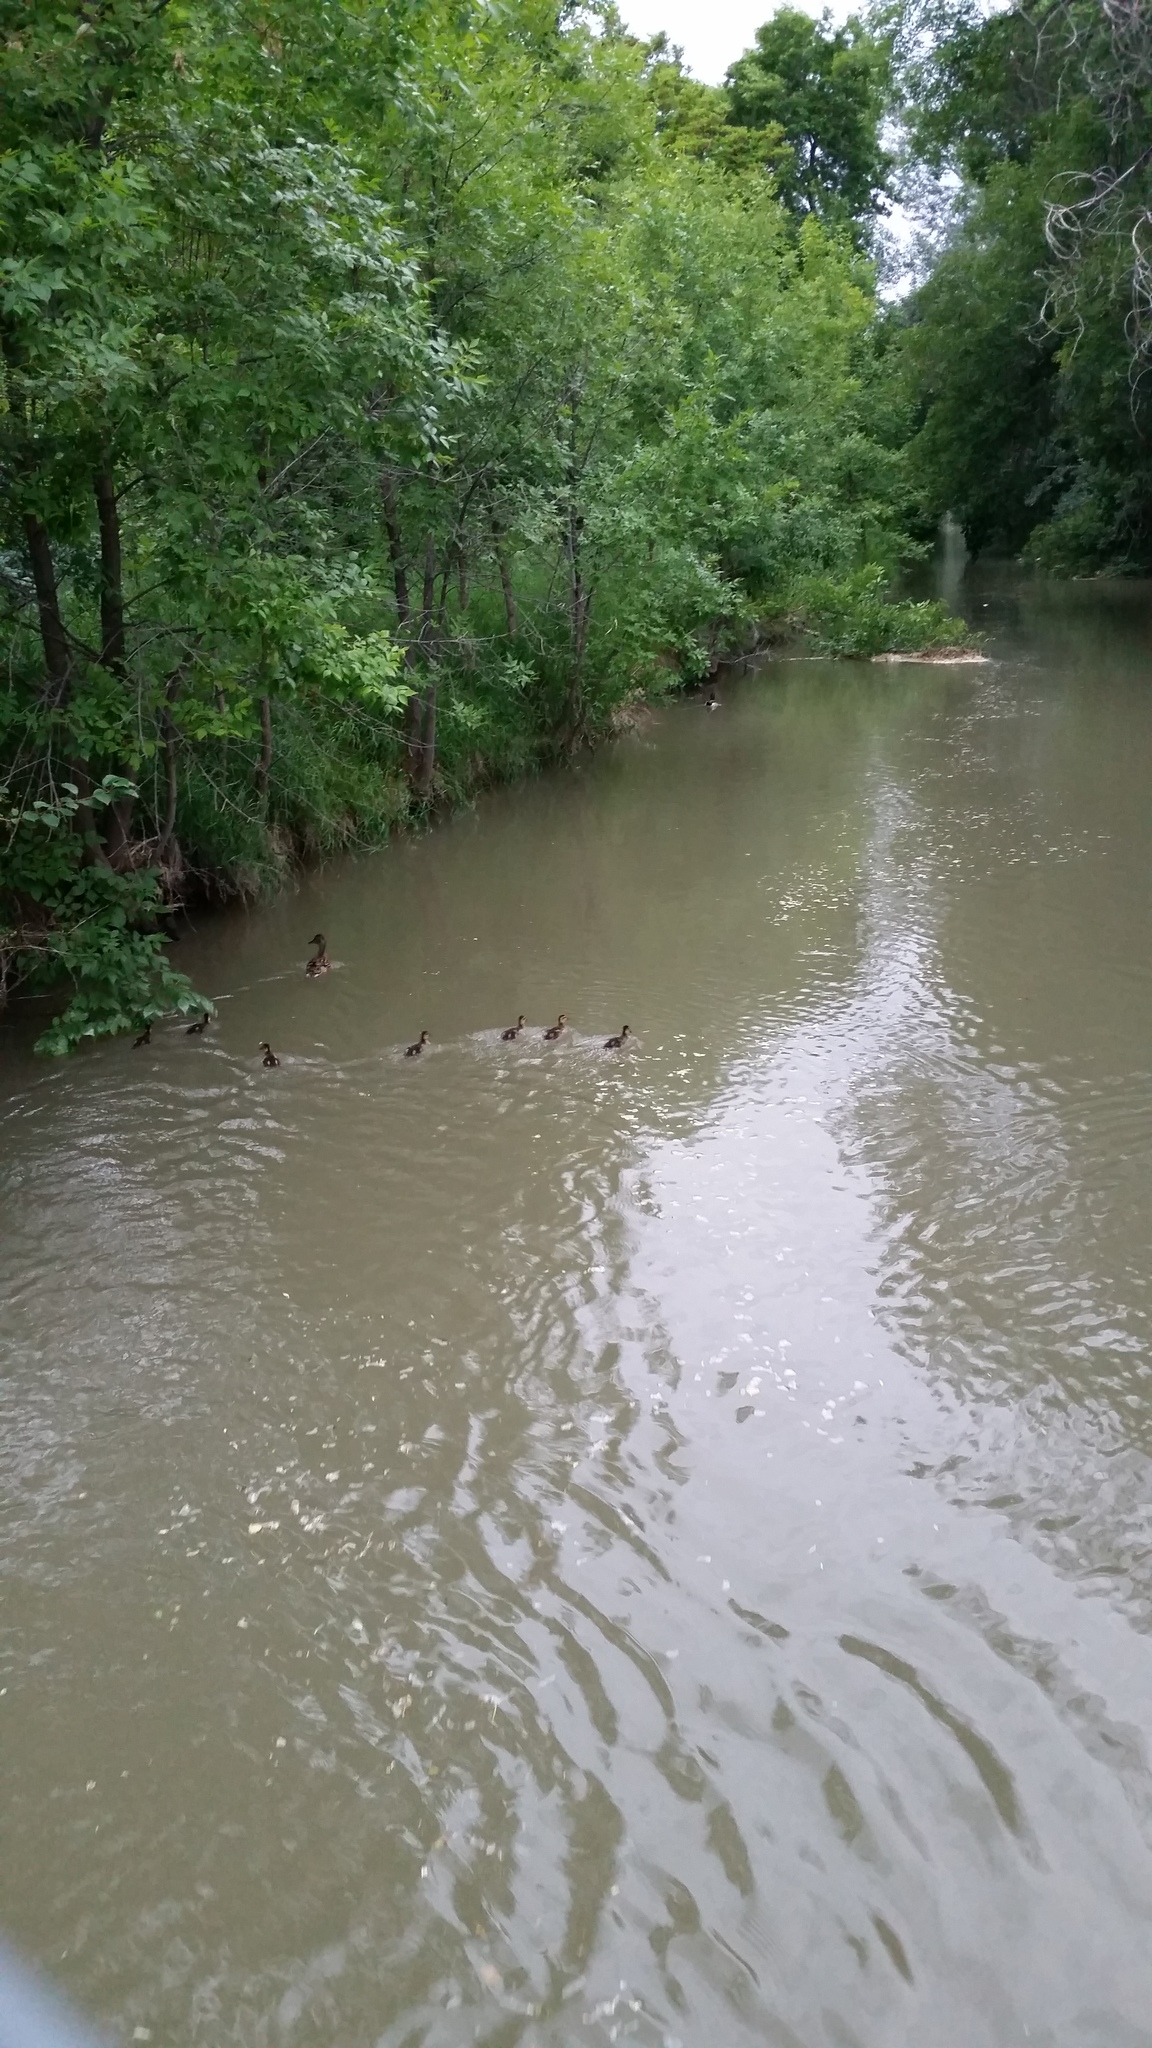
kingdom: Animalia
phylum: Chordata
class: Aves
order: Anseriformes
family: Anatidae
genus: Anas
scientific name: Anas platyrhynchos
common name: Mallard
